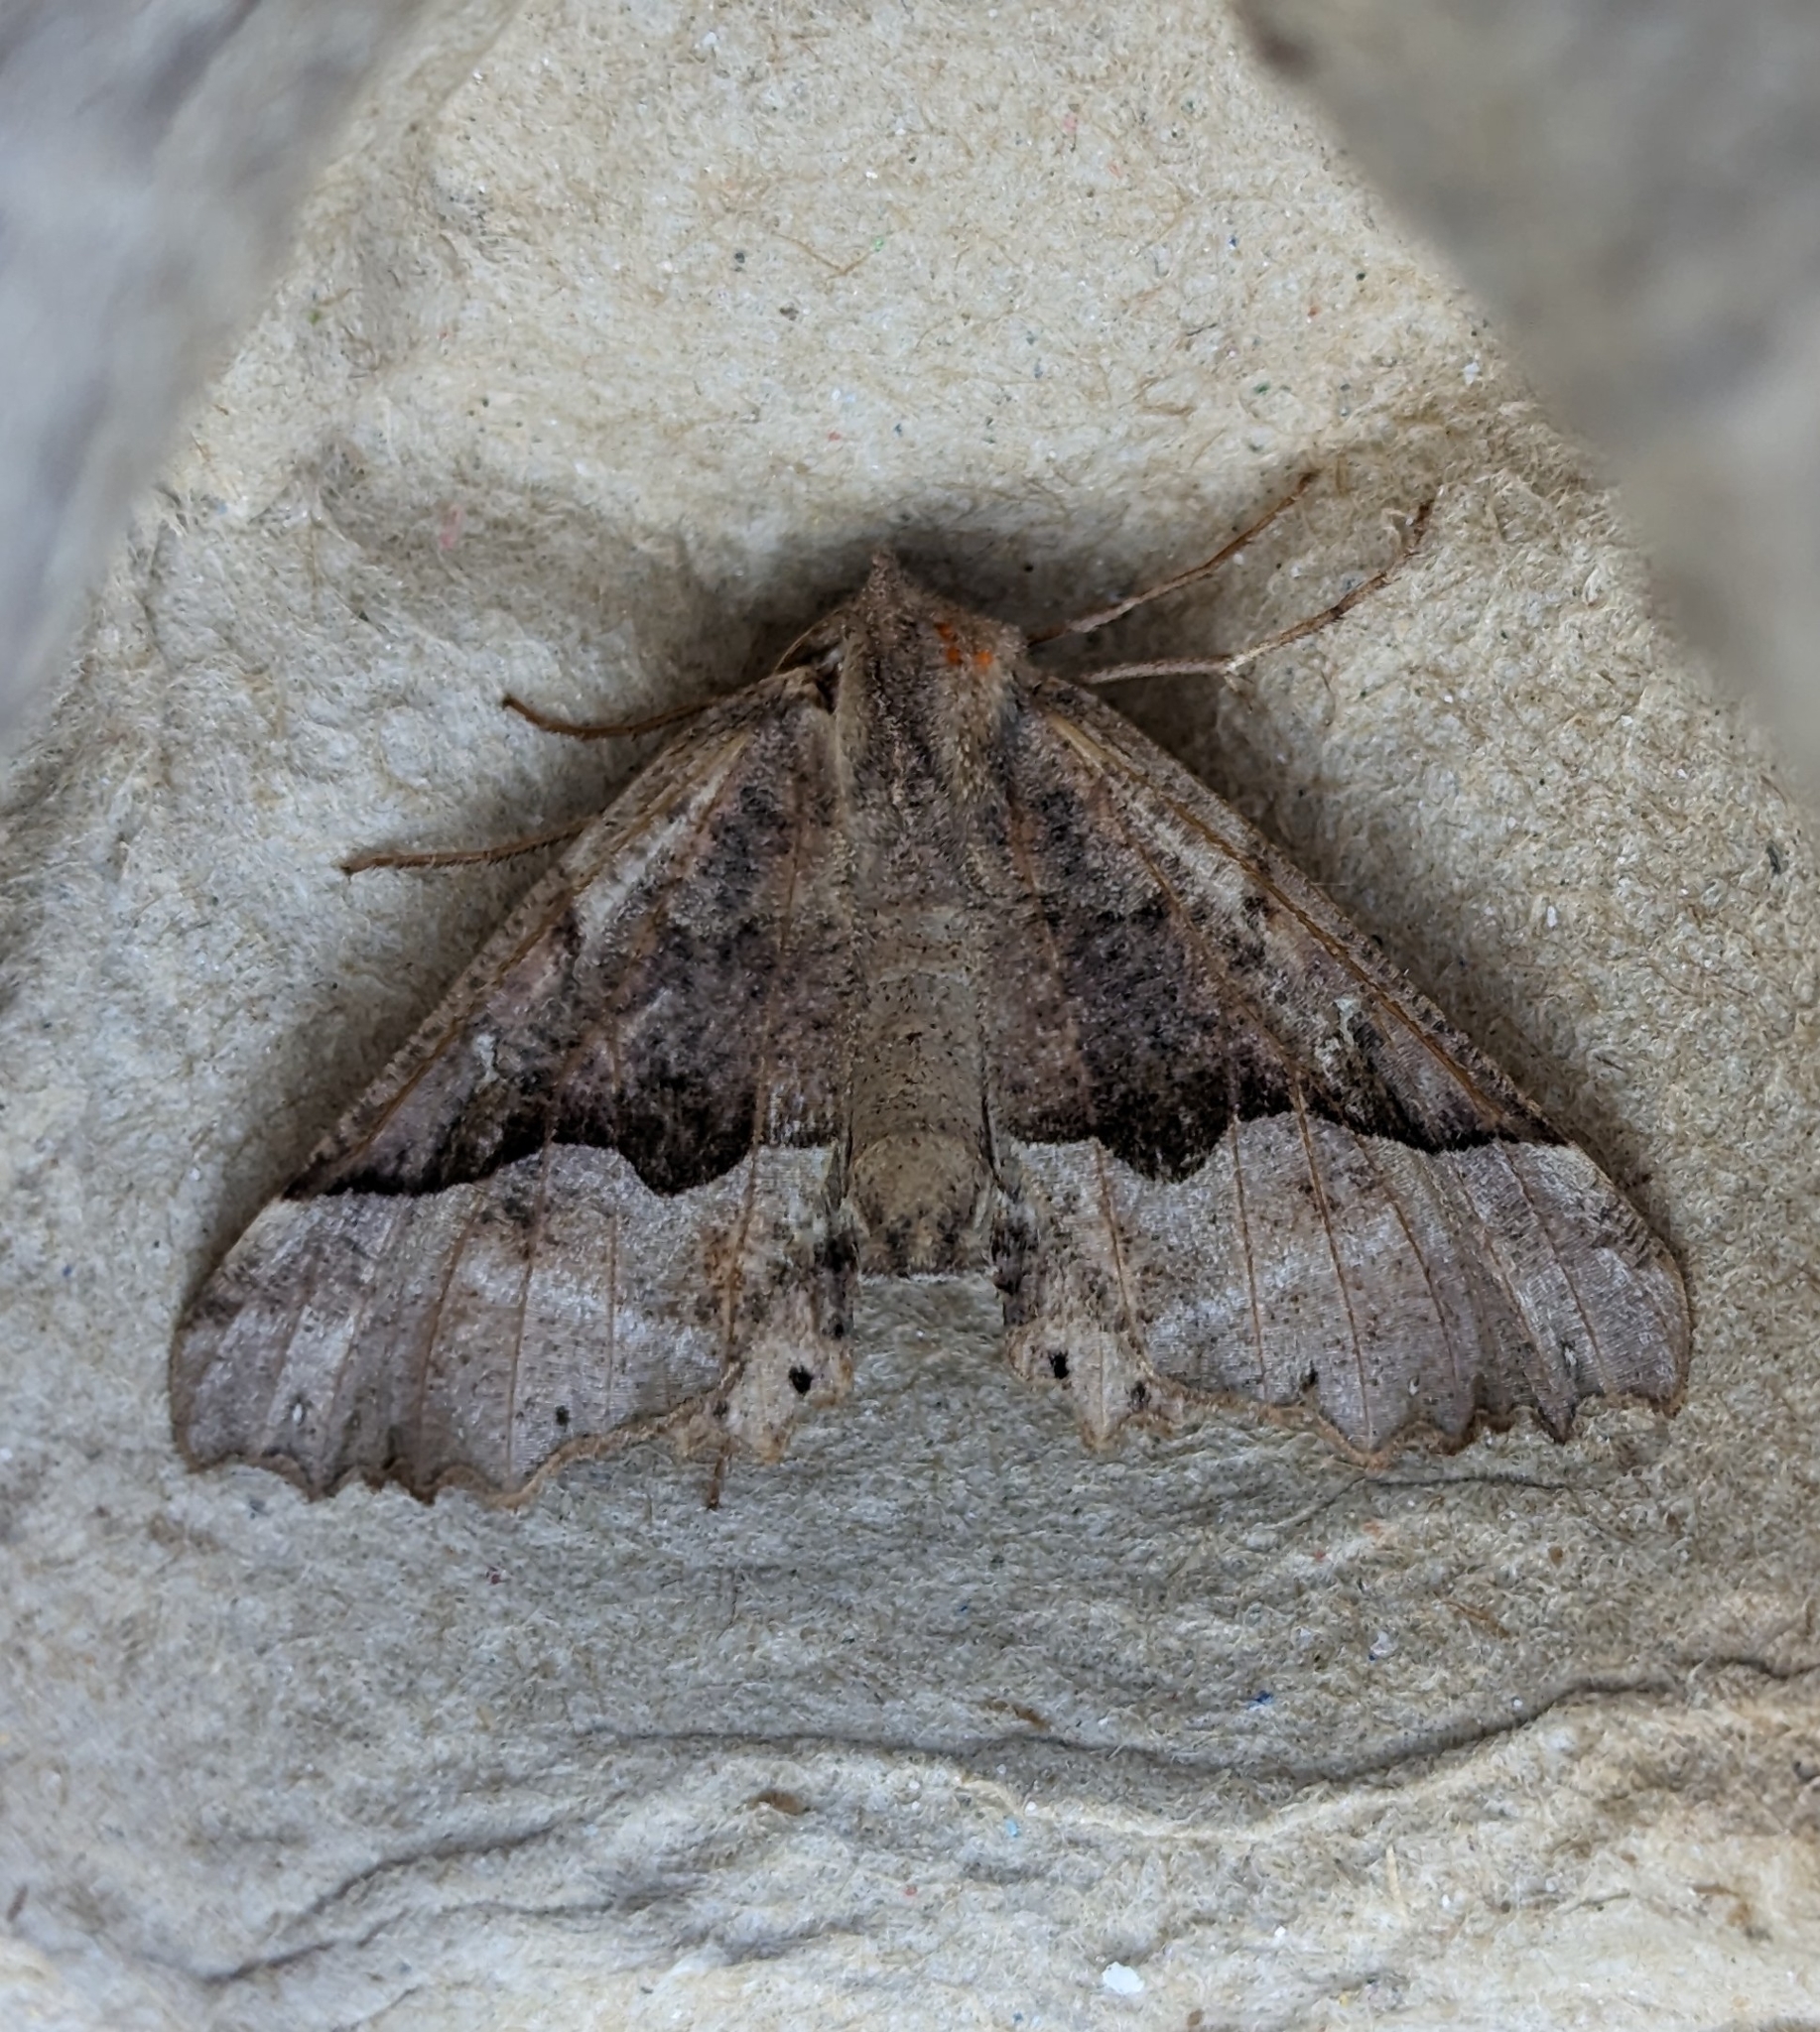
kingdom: Animalia
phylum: Arthropoda
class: Insecta
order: Lepidoptera
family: Geometridae
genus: Pero
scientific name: Pero mizon
